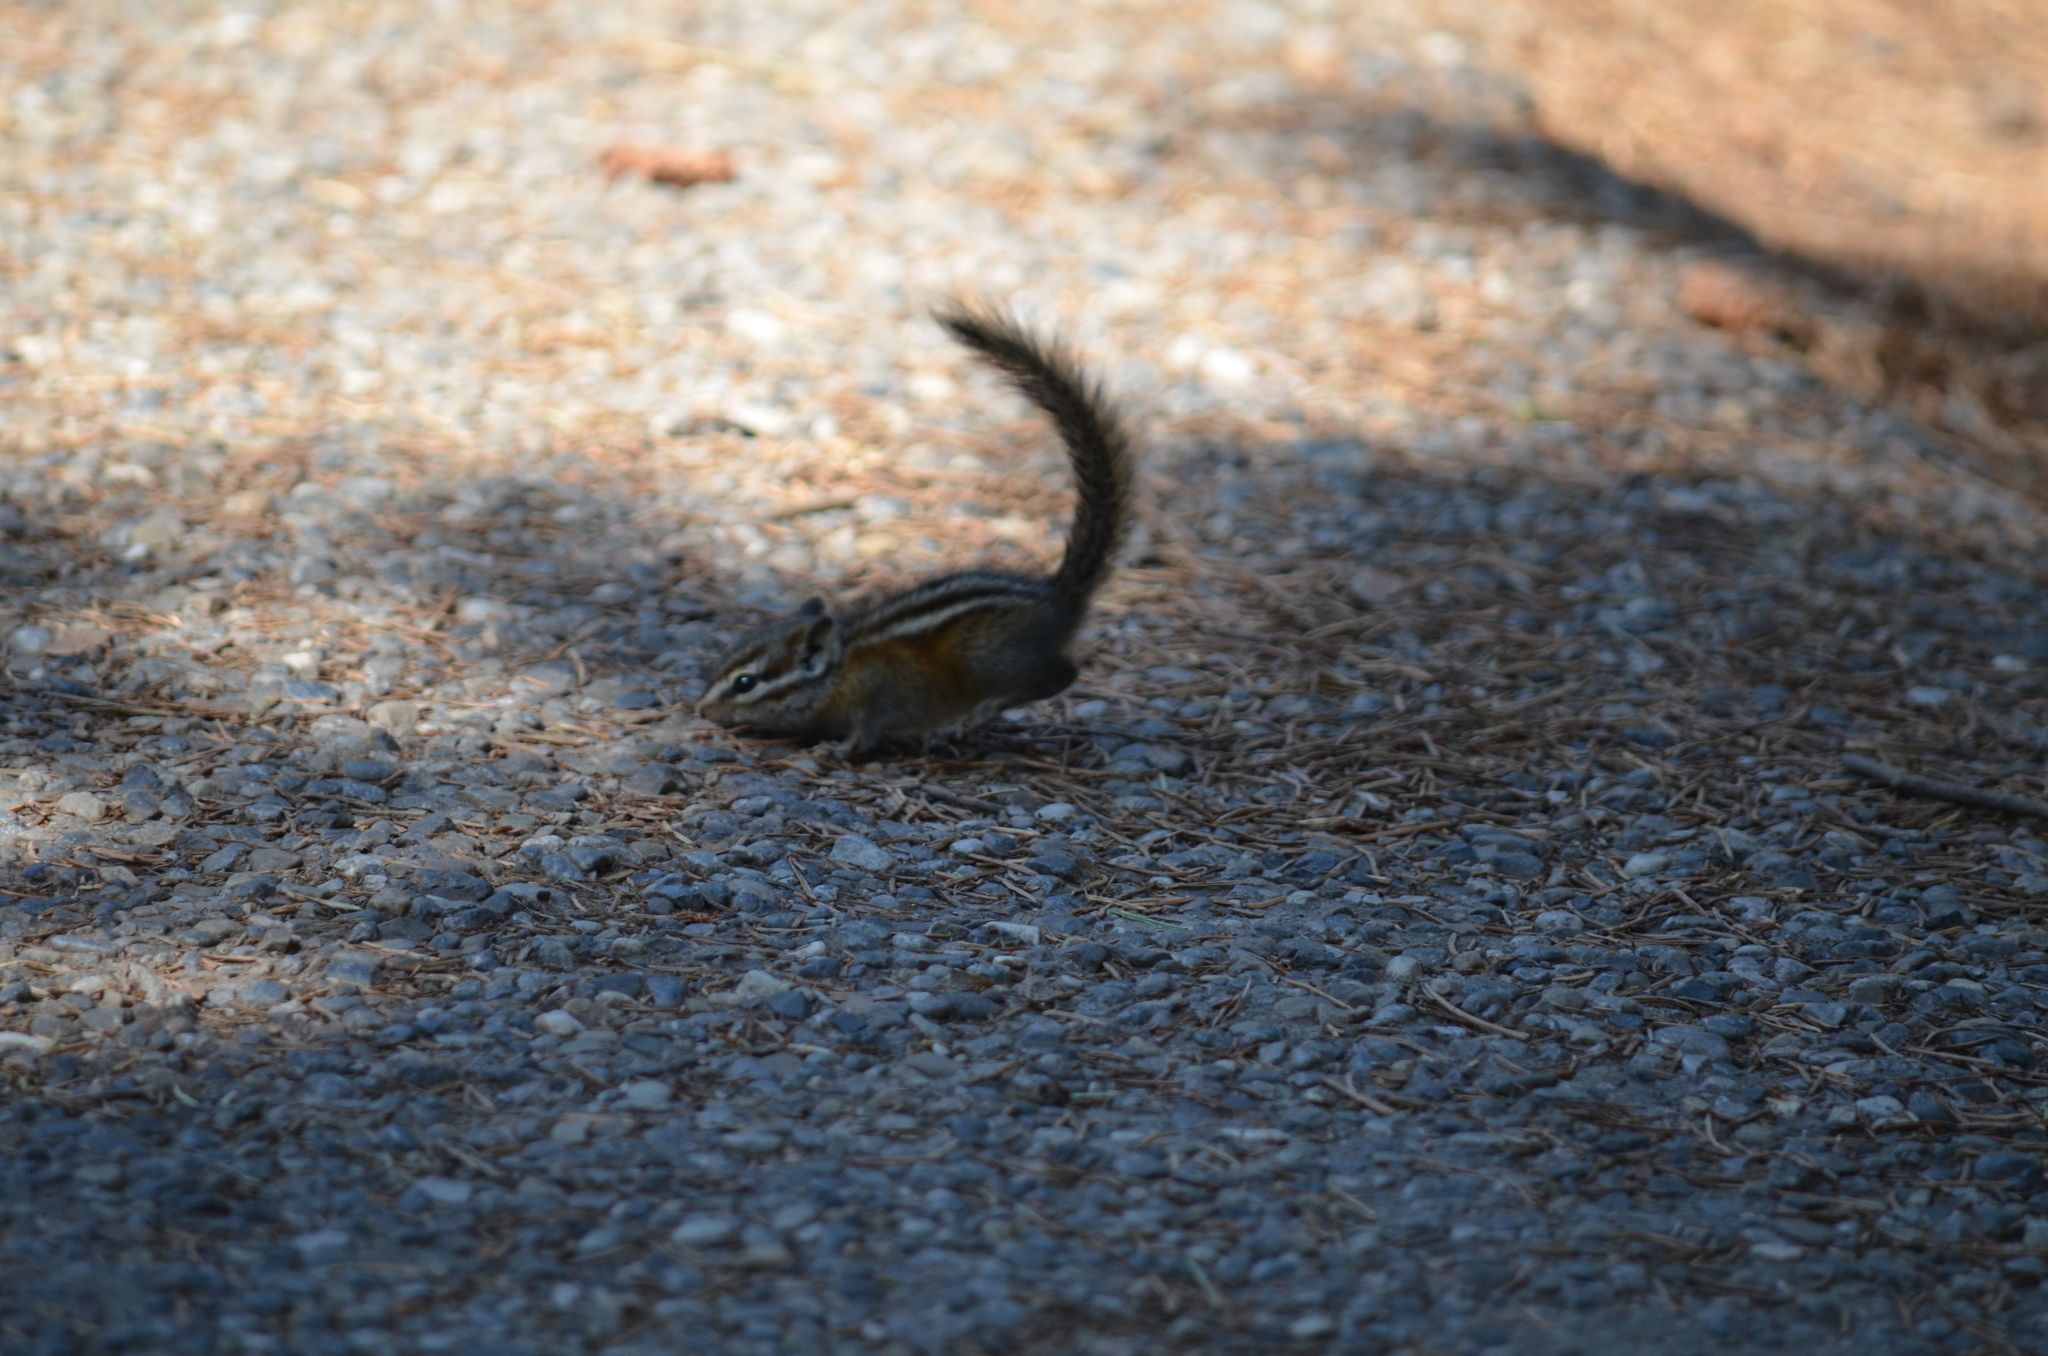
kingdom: Animalia
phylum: Chordata
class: Mammalia
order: Rodentia
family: Sciuridae
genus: Tamias
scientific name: Tamias minimus
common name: Least chipmunk
